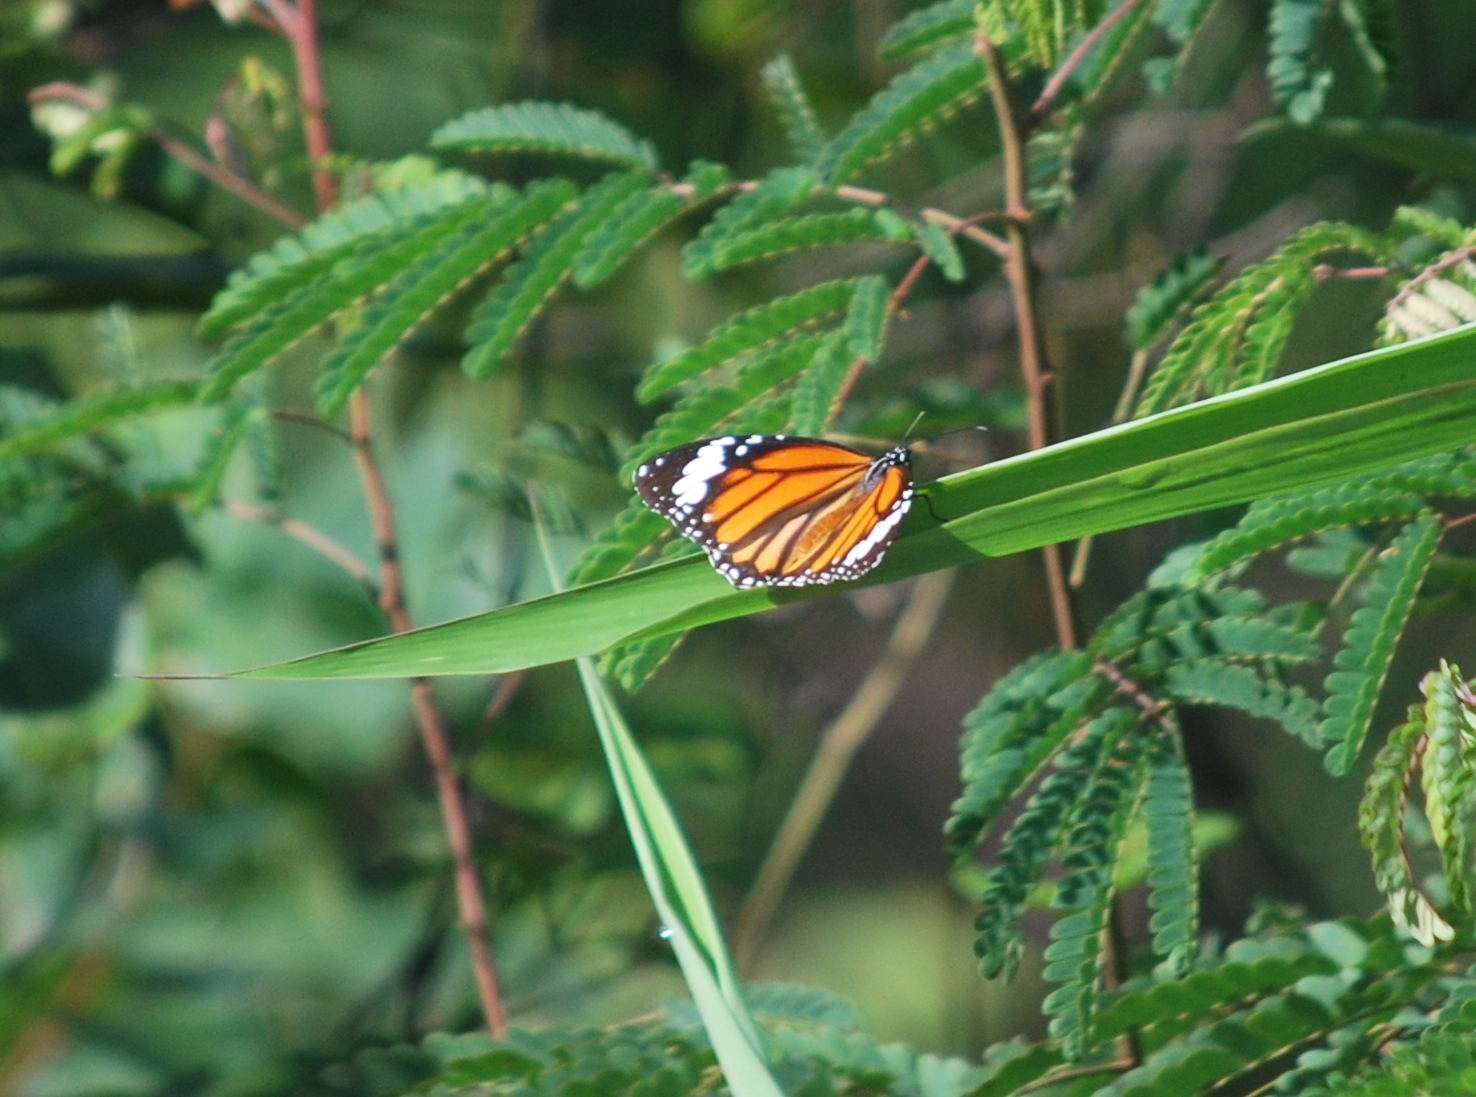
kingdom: Animalia
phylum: Arthropoda
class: Insecta
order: Lepidoptera
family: Nymphalidae
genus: Danaus
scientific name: Danaus genutia
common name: Common tiger butterfly
